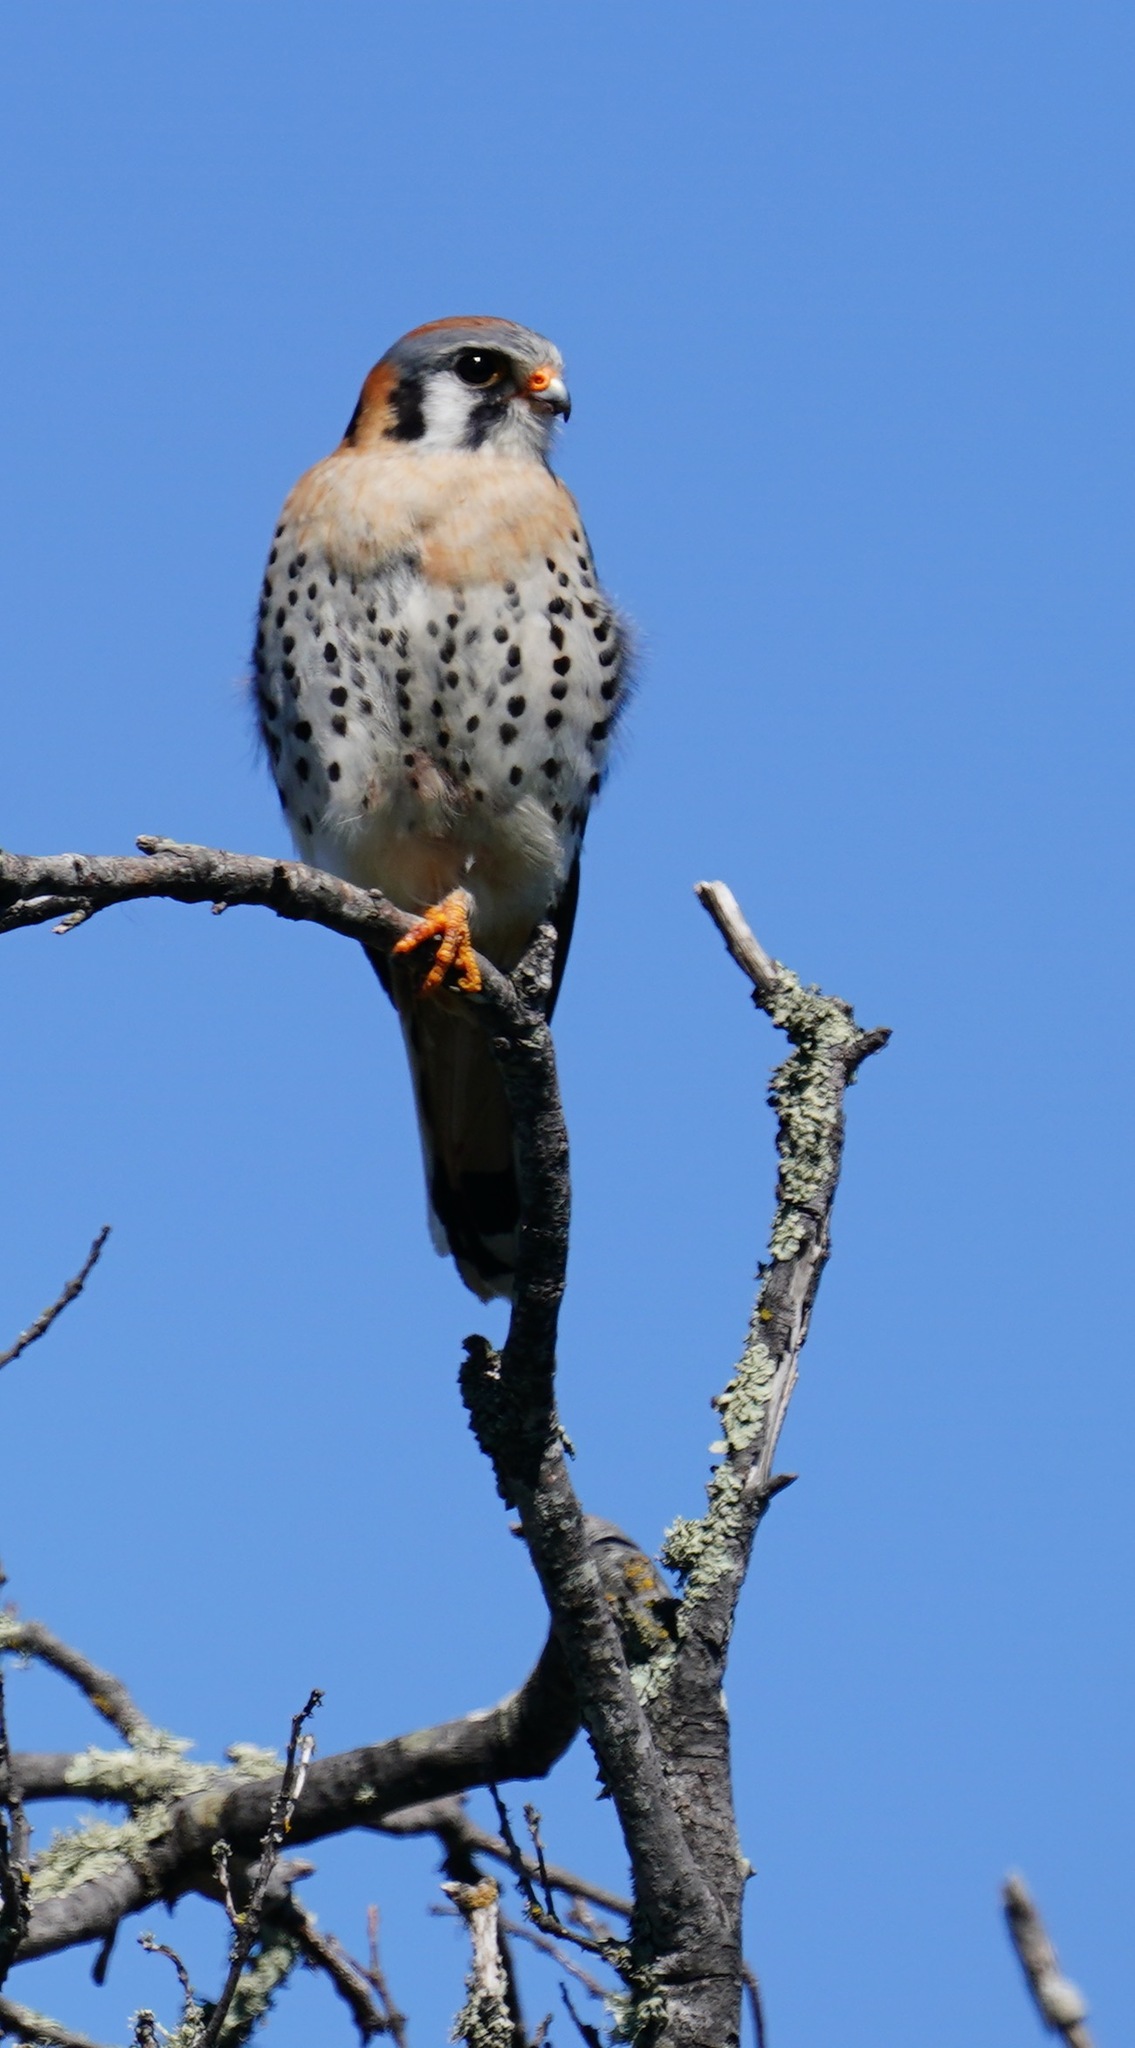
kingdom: Animalia
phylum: Chordata
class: Aves
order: Falconiformes
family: Falconidae
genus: Falco
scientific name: Falco sparverius
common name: American kestrel
